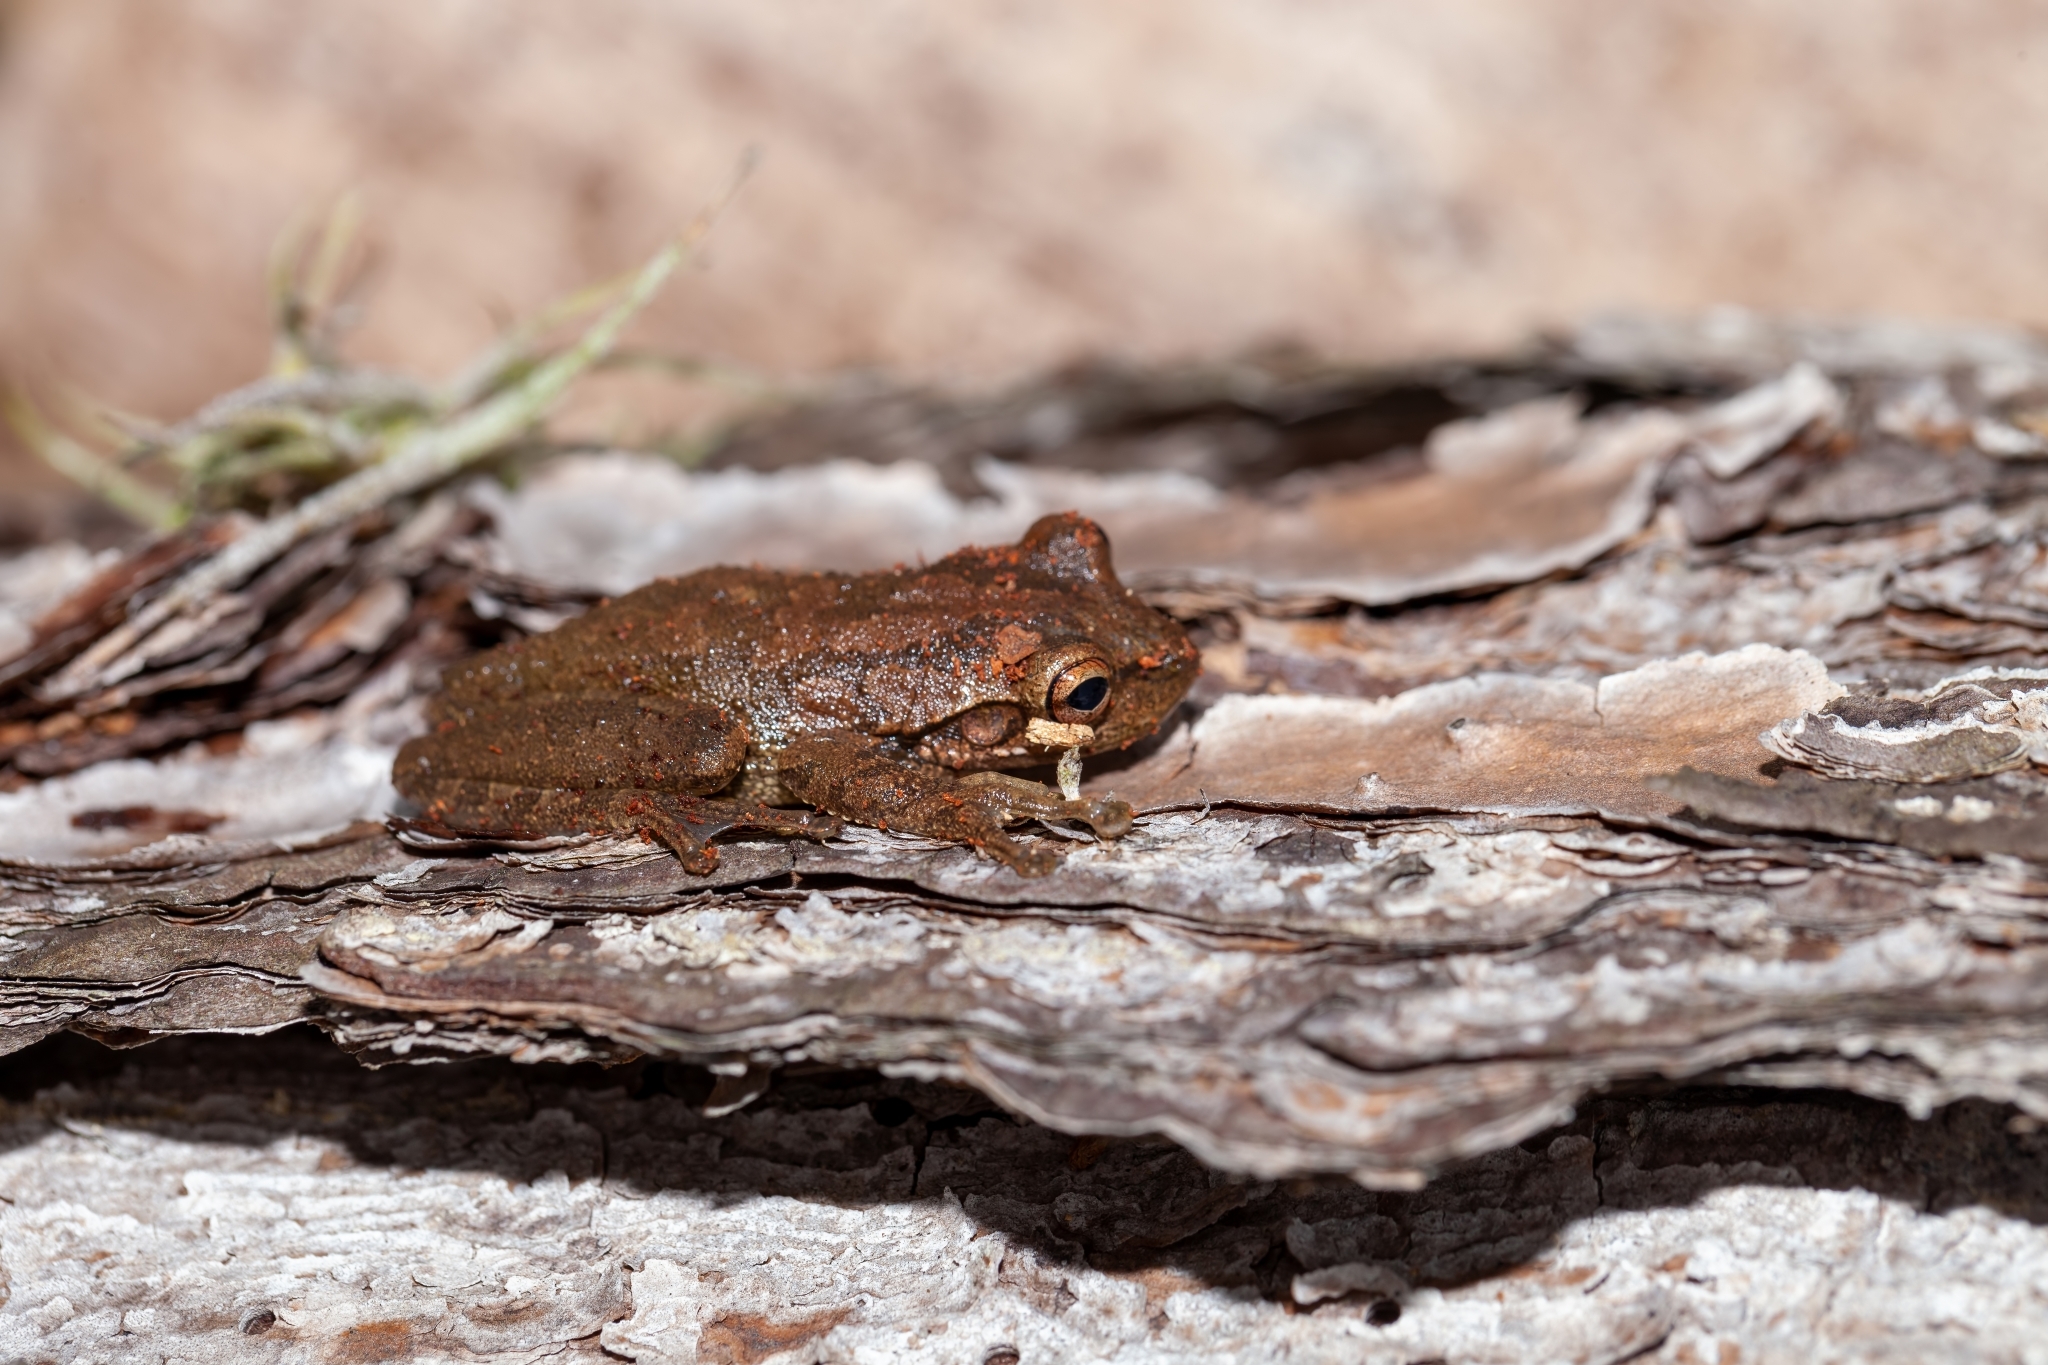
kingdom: Animalia
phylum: Chordata
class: Amphibia
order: Anura
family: Hylidae
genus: Osteopilus
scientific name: Osteopilus septentrionalis
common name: Cuban treefrog
